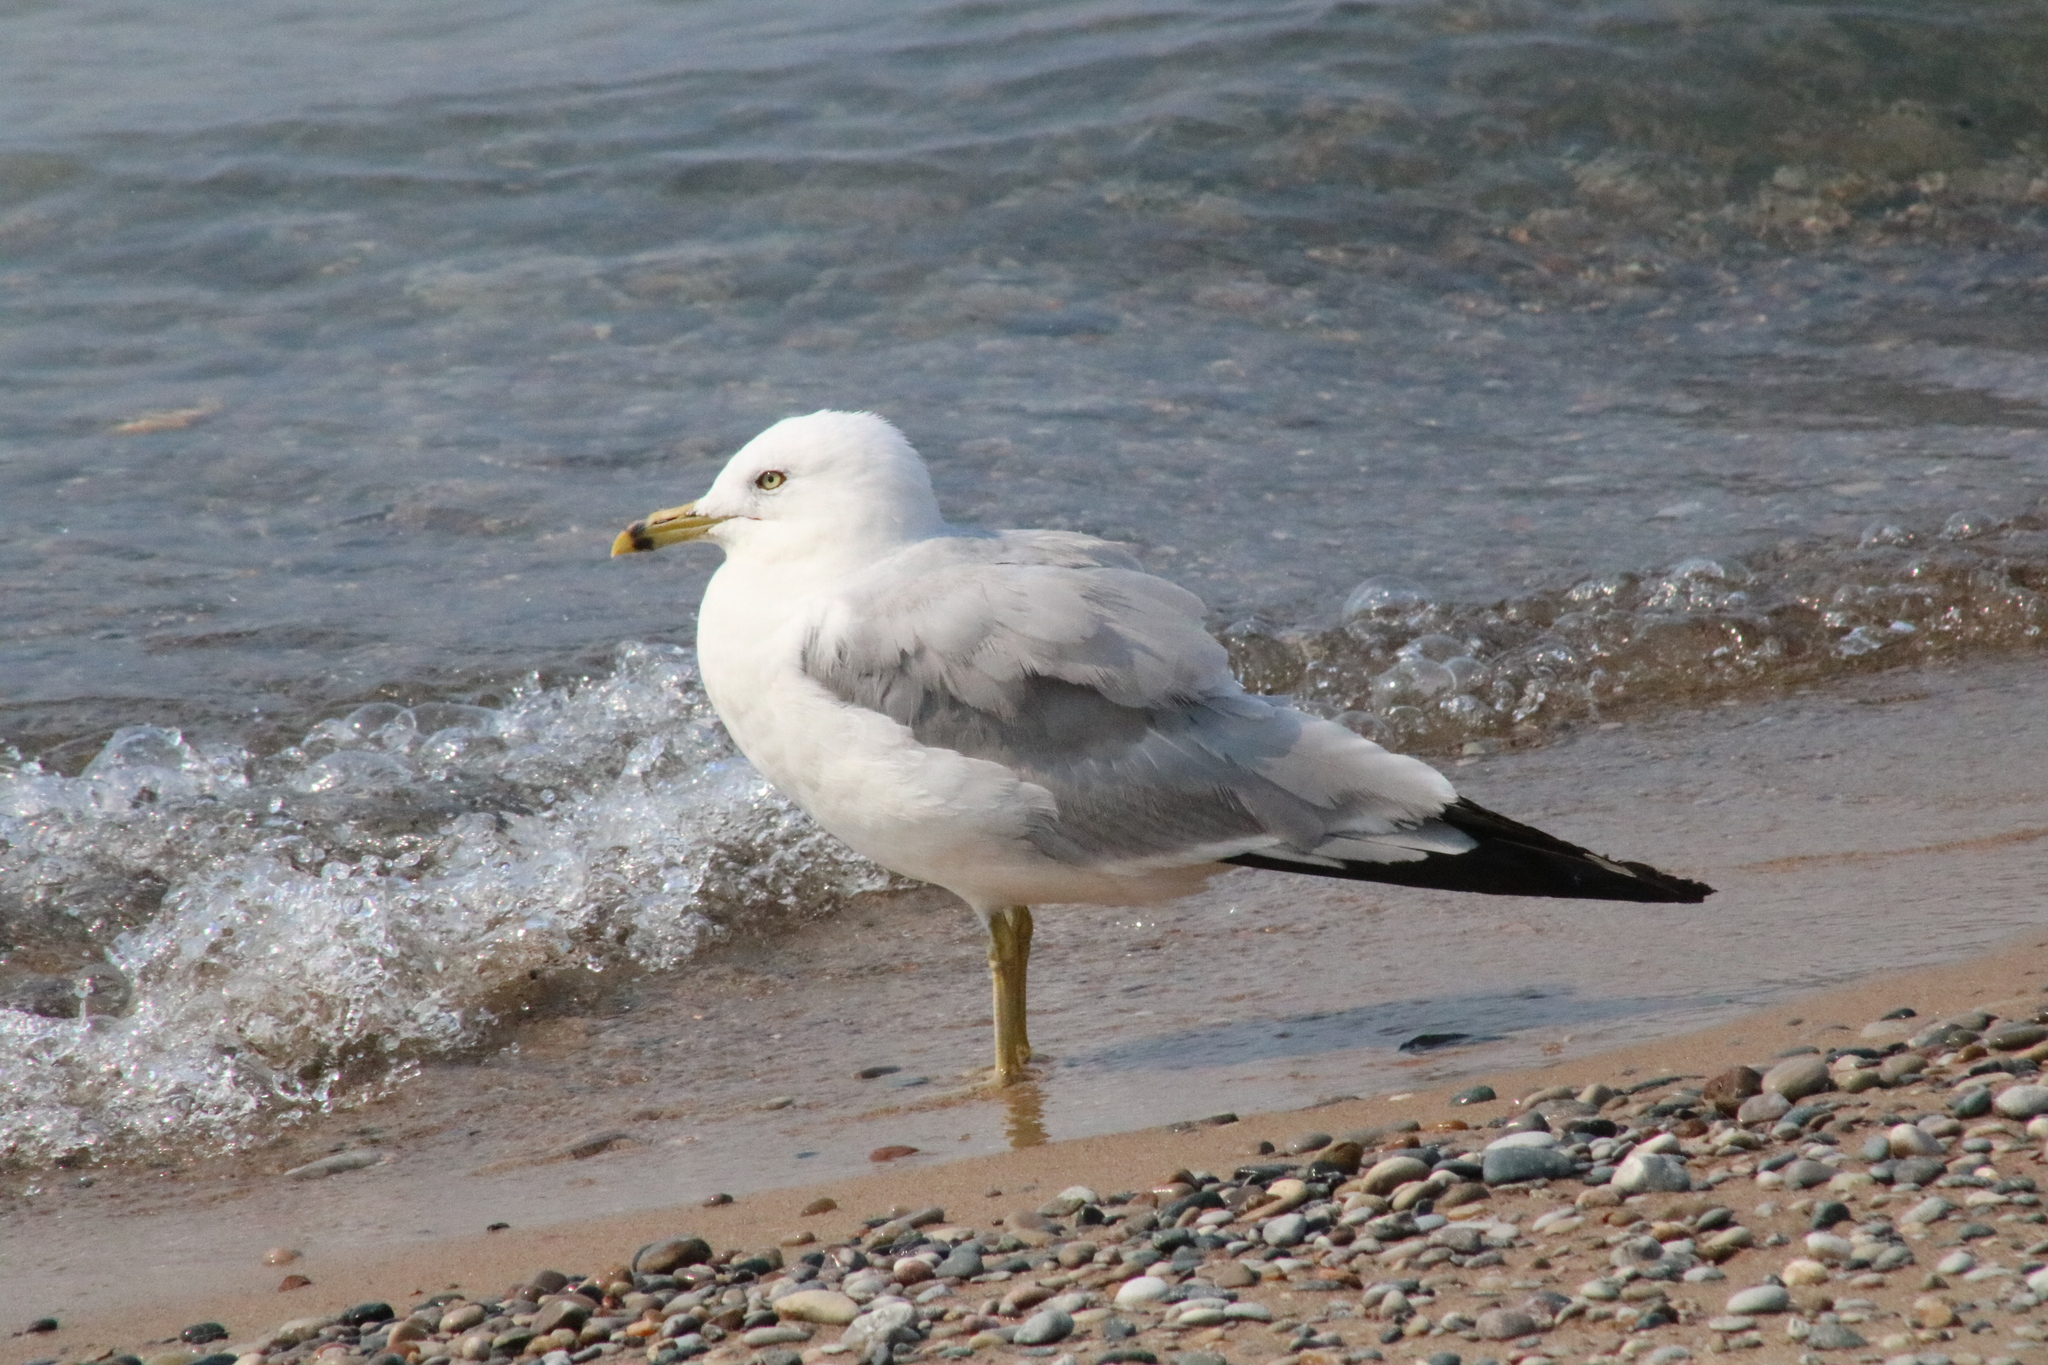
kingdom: Animalia
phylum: Chordata
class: Aves
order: Charadriiformes
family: Laridae
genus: Larus
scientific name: Larus delawarensis
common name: Ring-billed gull
